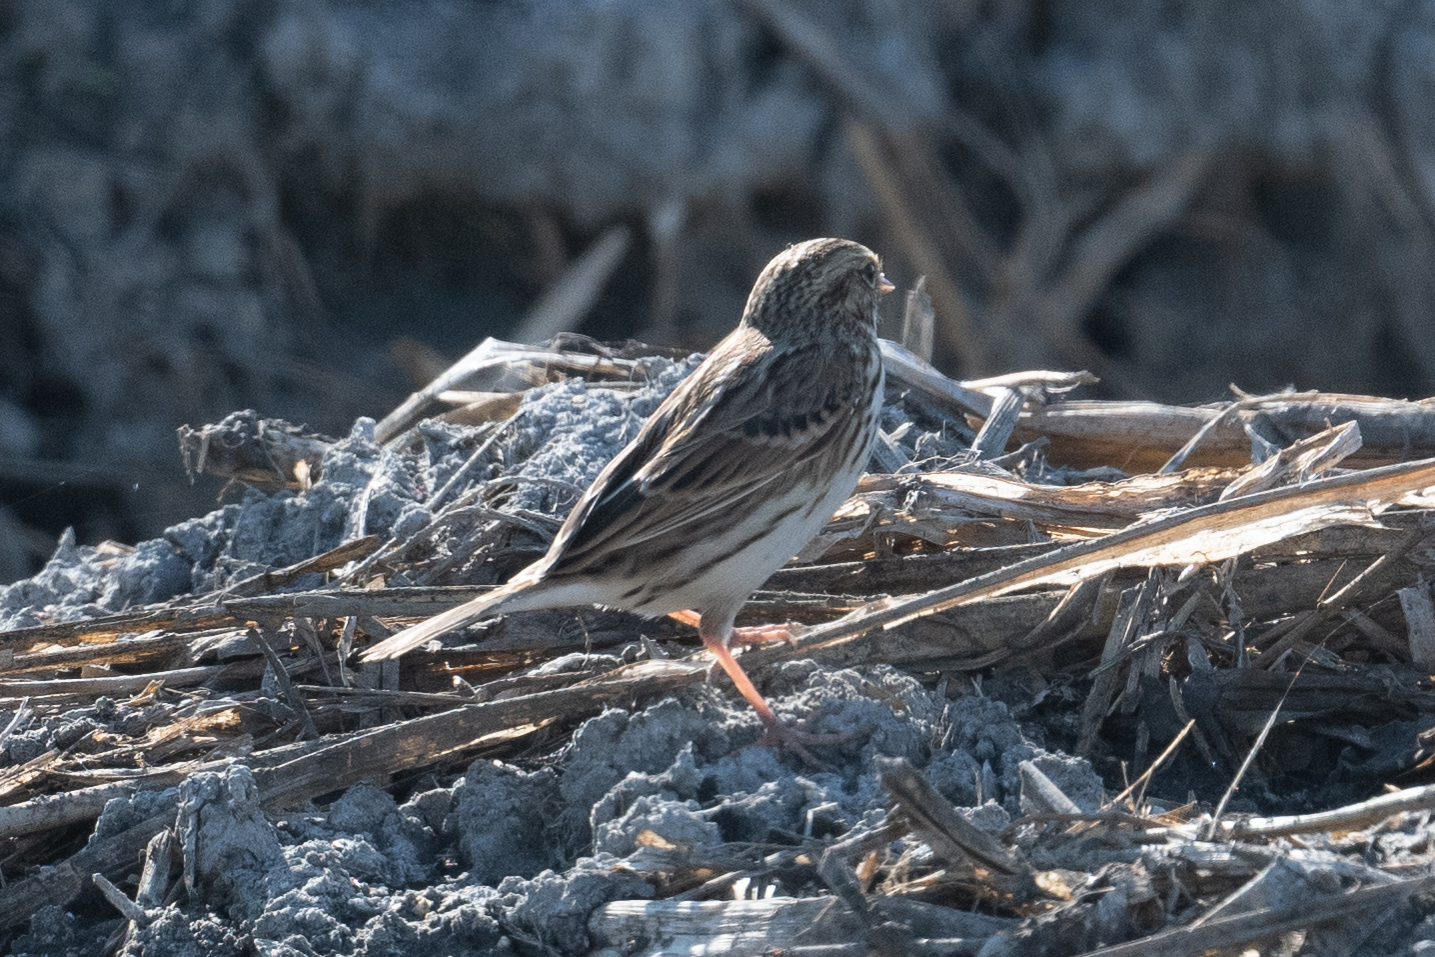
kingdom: Animalia
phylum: Chordata
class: Aves
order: Passeriformes
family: Passerellidae
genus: Passerculus
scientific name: Passerculus sandwichensis
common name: Savannah sparrow
